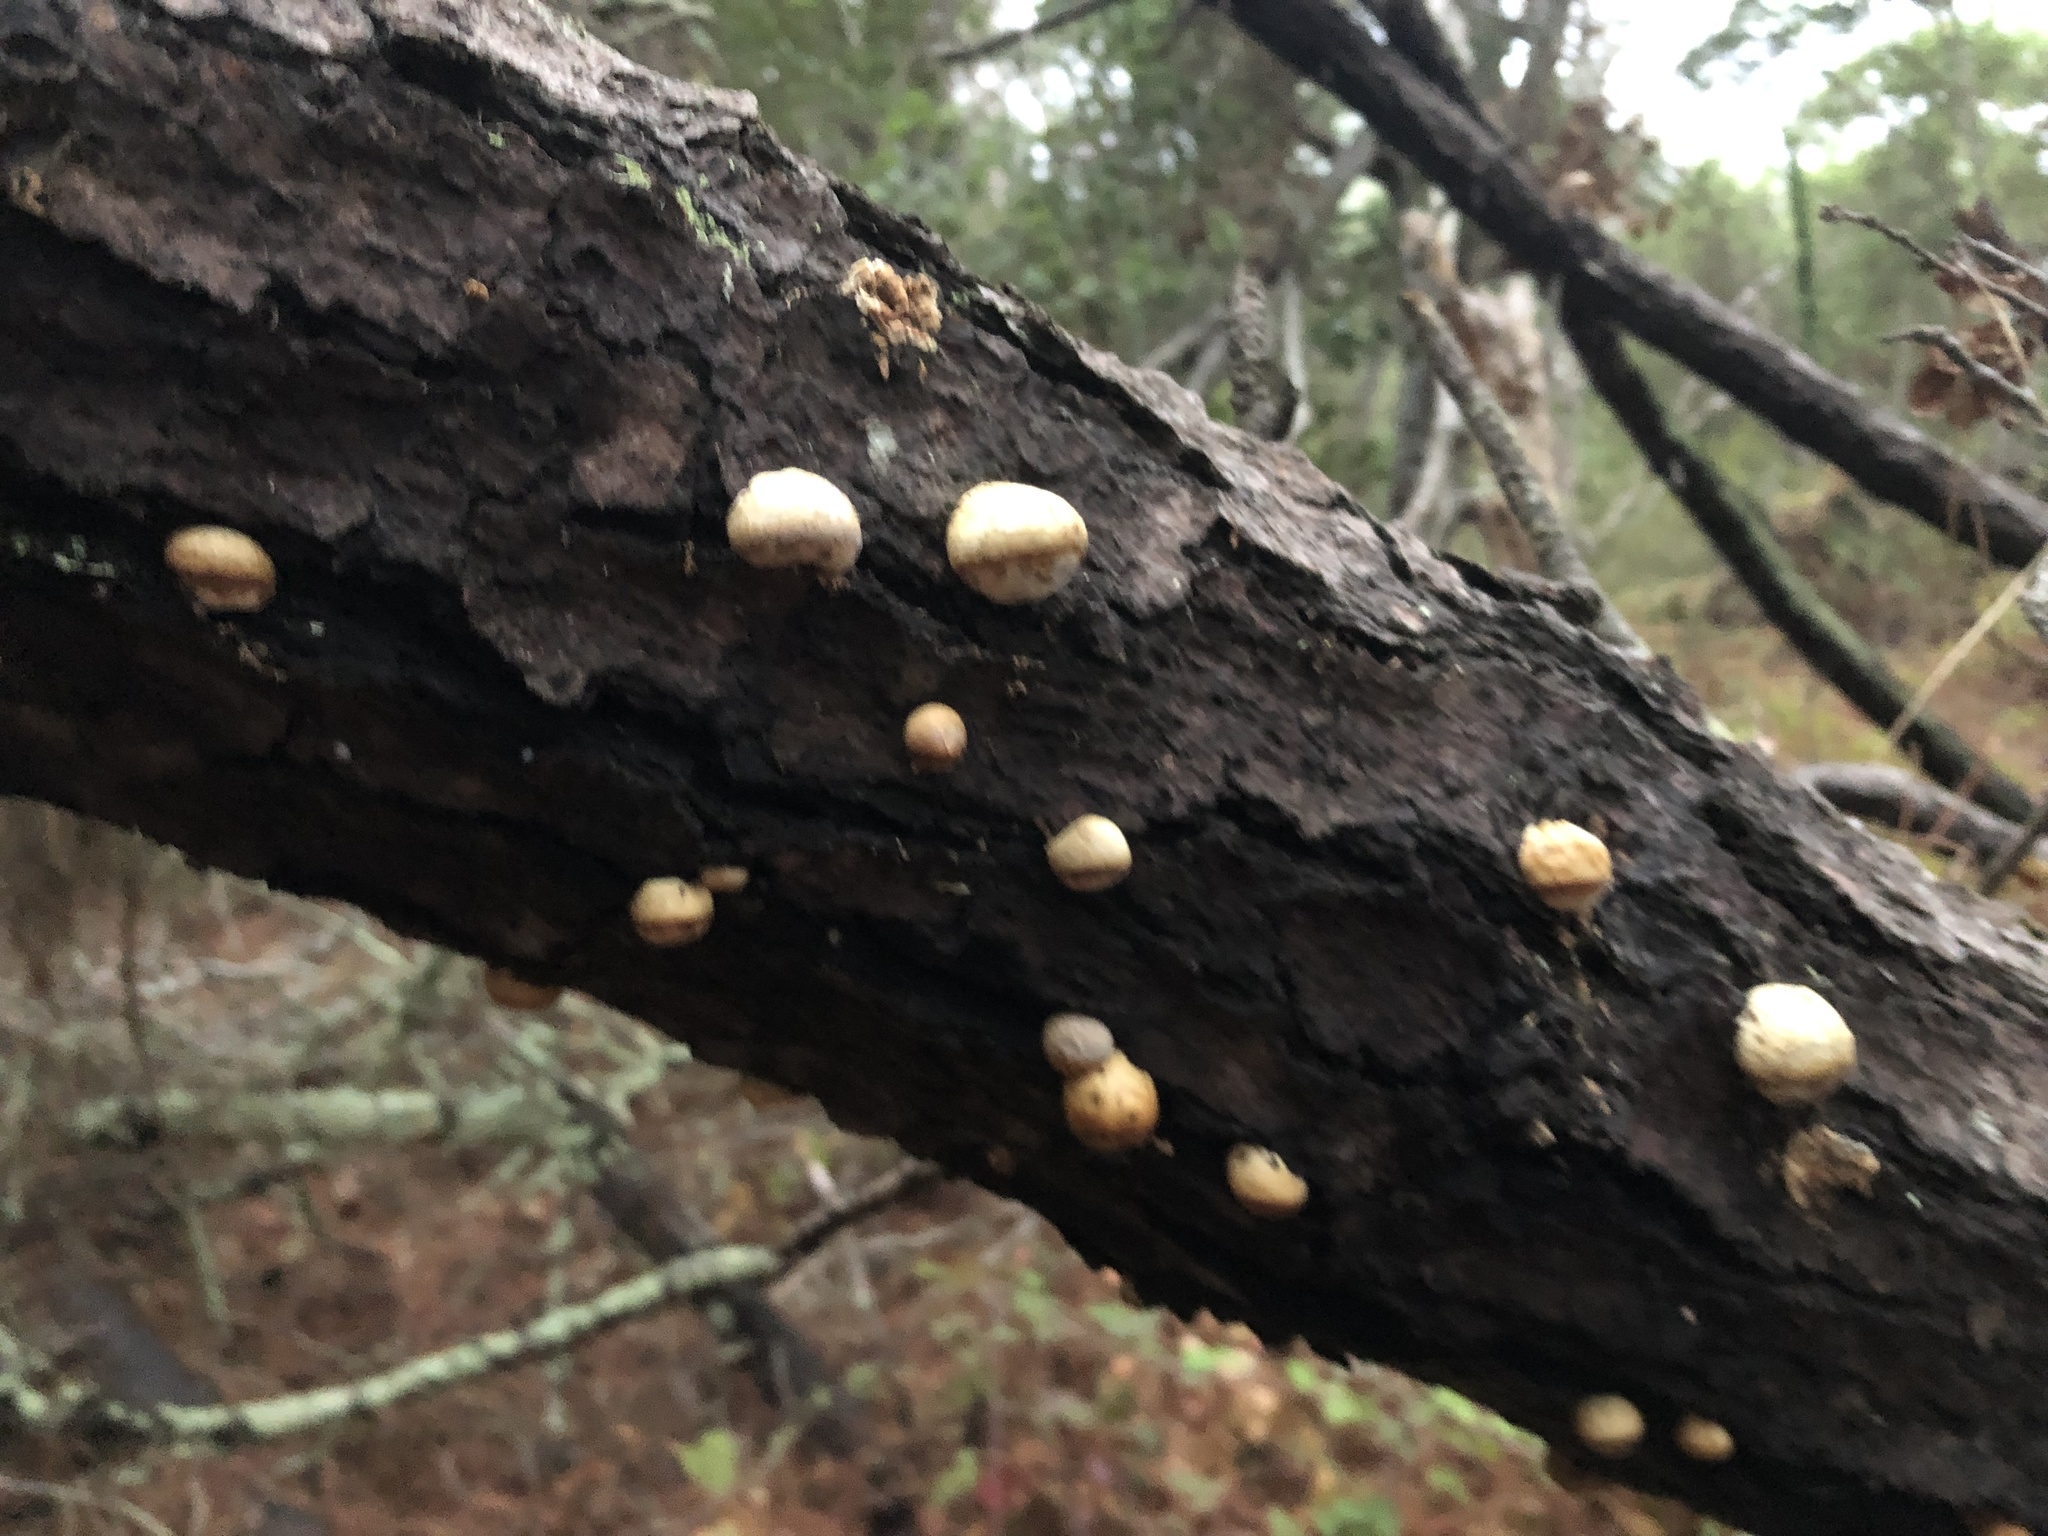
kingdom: Fungi
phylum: Basidiomycota
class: Agaricomycetes
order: Polyporales
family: Polyporaceae
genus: Cryptoporus
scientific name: Cryptoporus volvatus
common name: Veiled polypore
